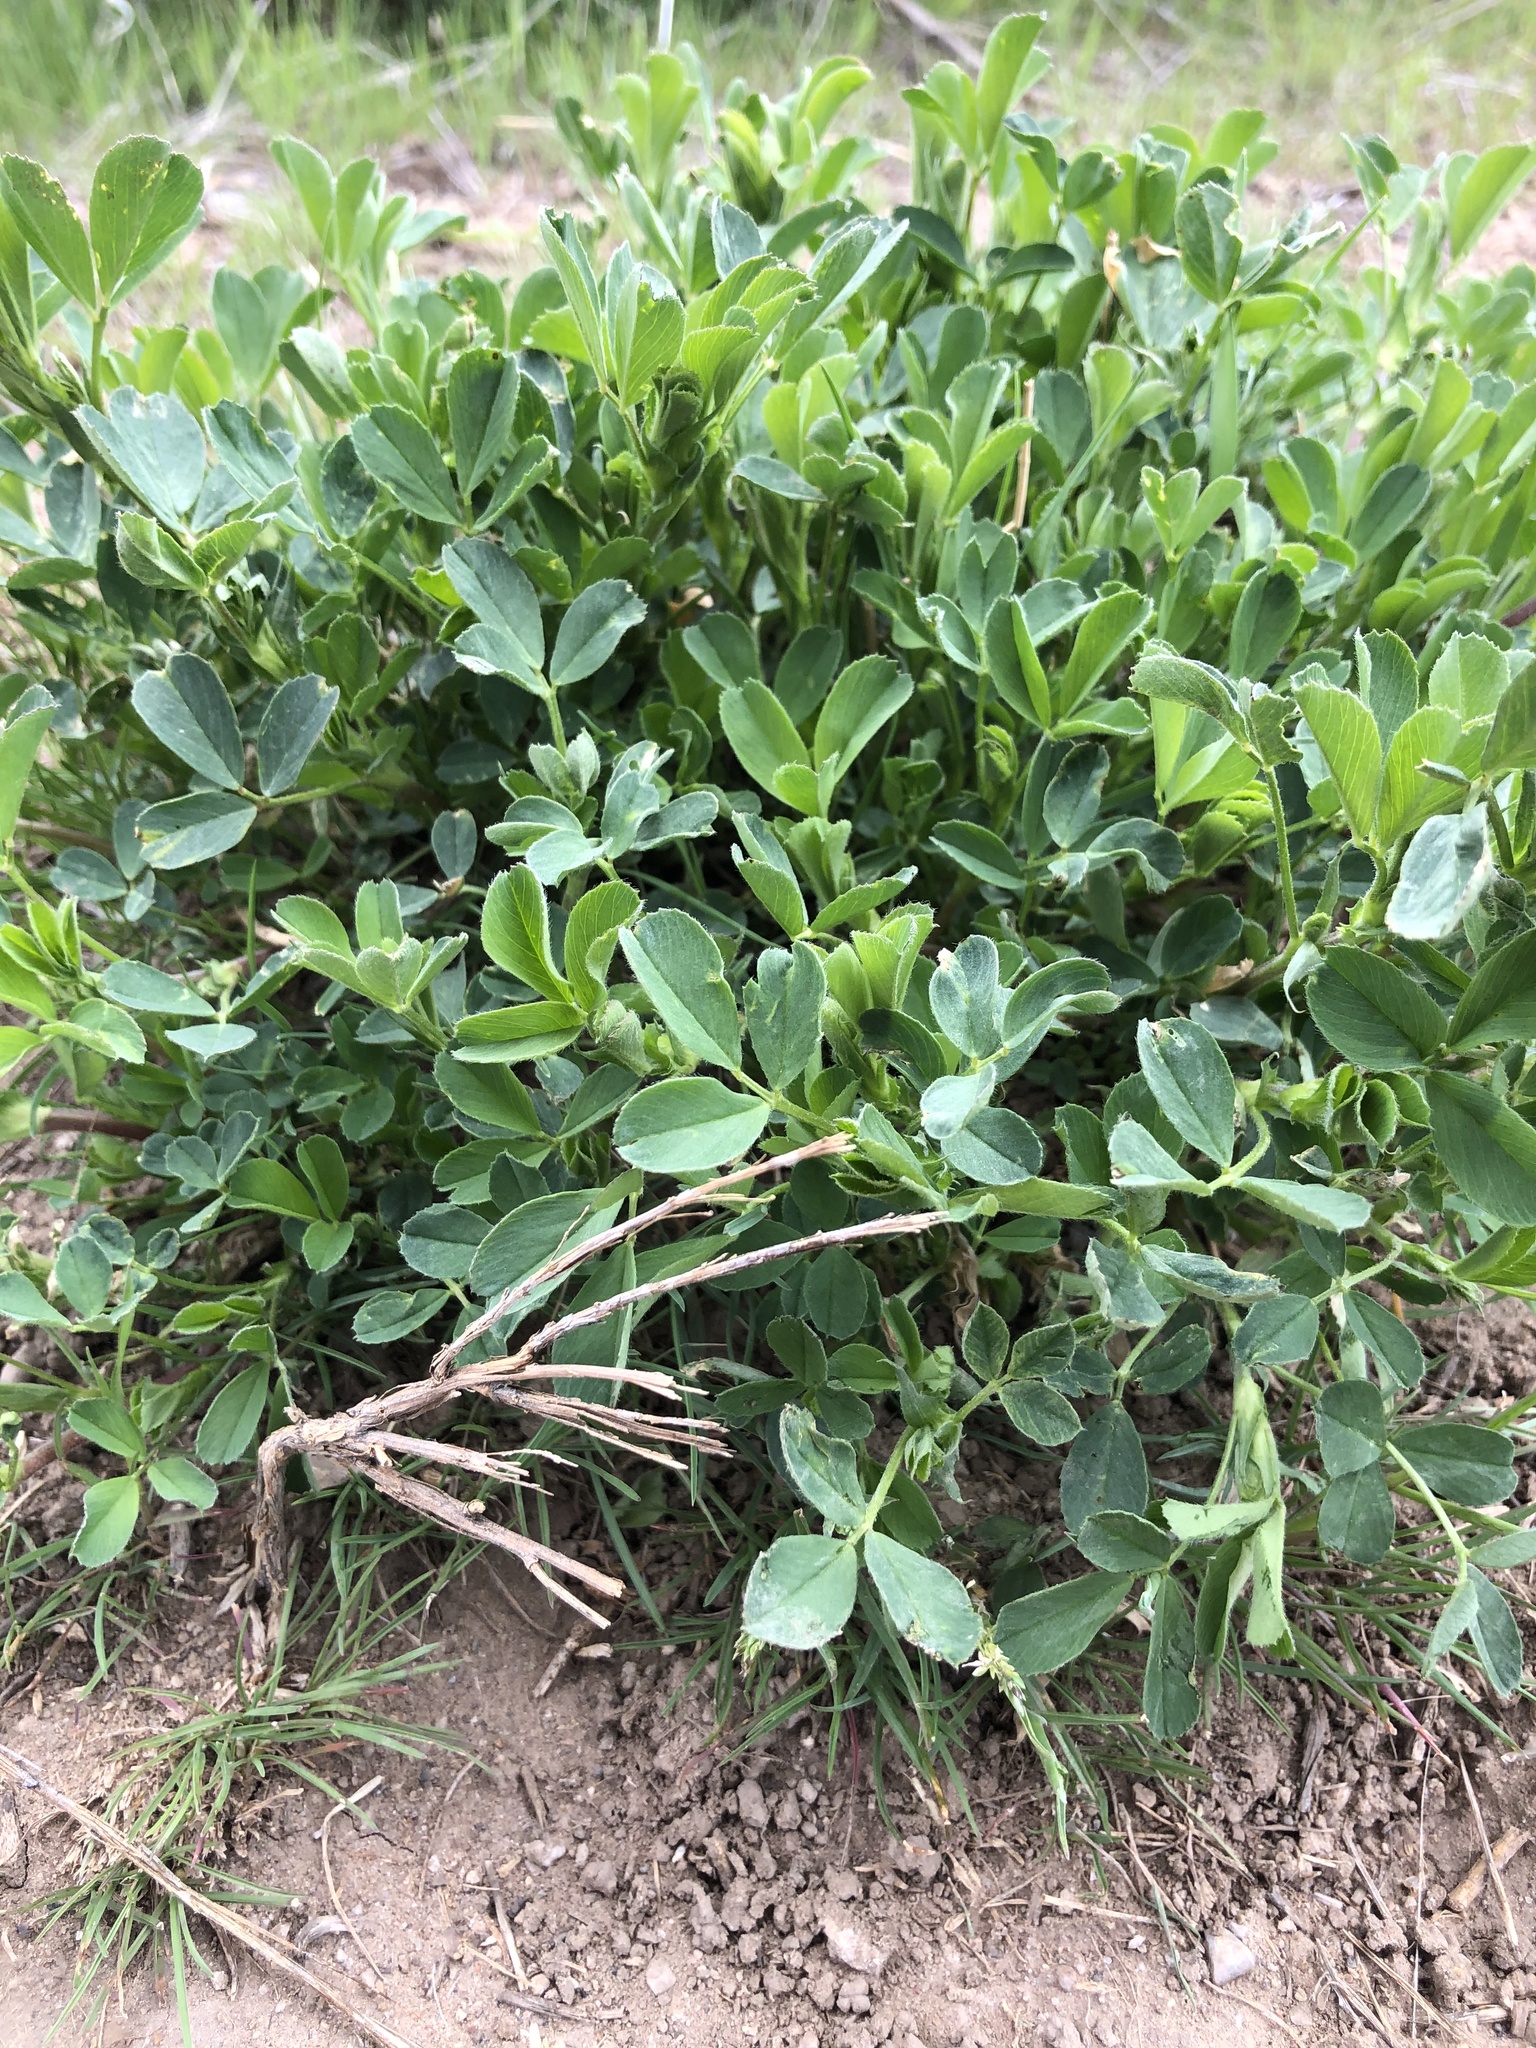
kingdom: Plantae
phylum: Tracheophyta
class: Magnoliopsida
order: Fabales
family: Fabaceae
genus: Medicago
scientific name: Medicago sativa
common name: Alfalfa
